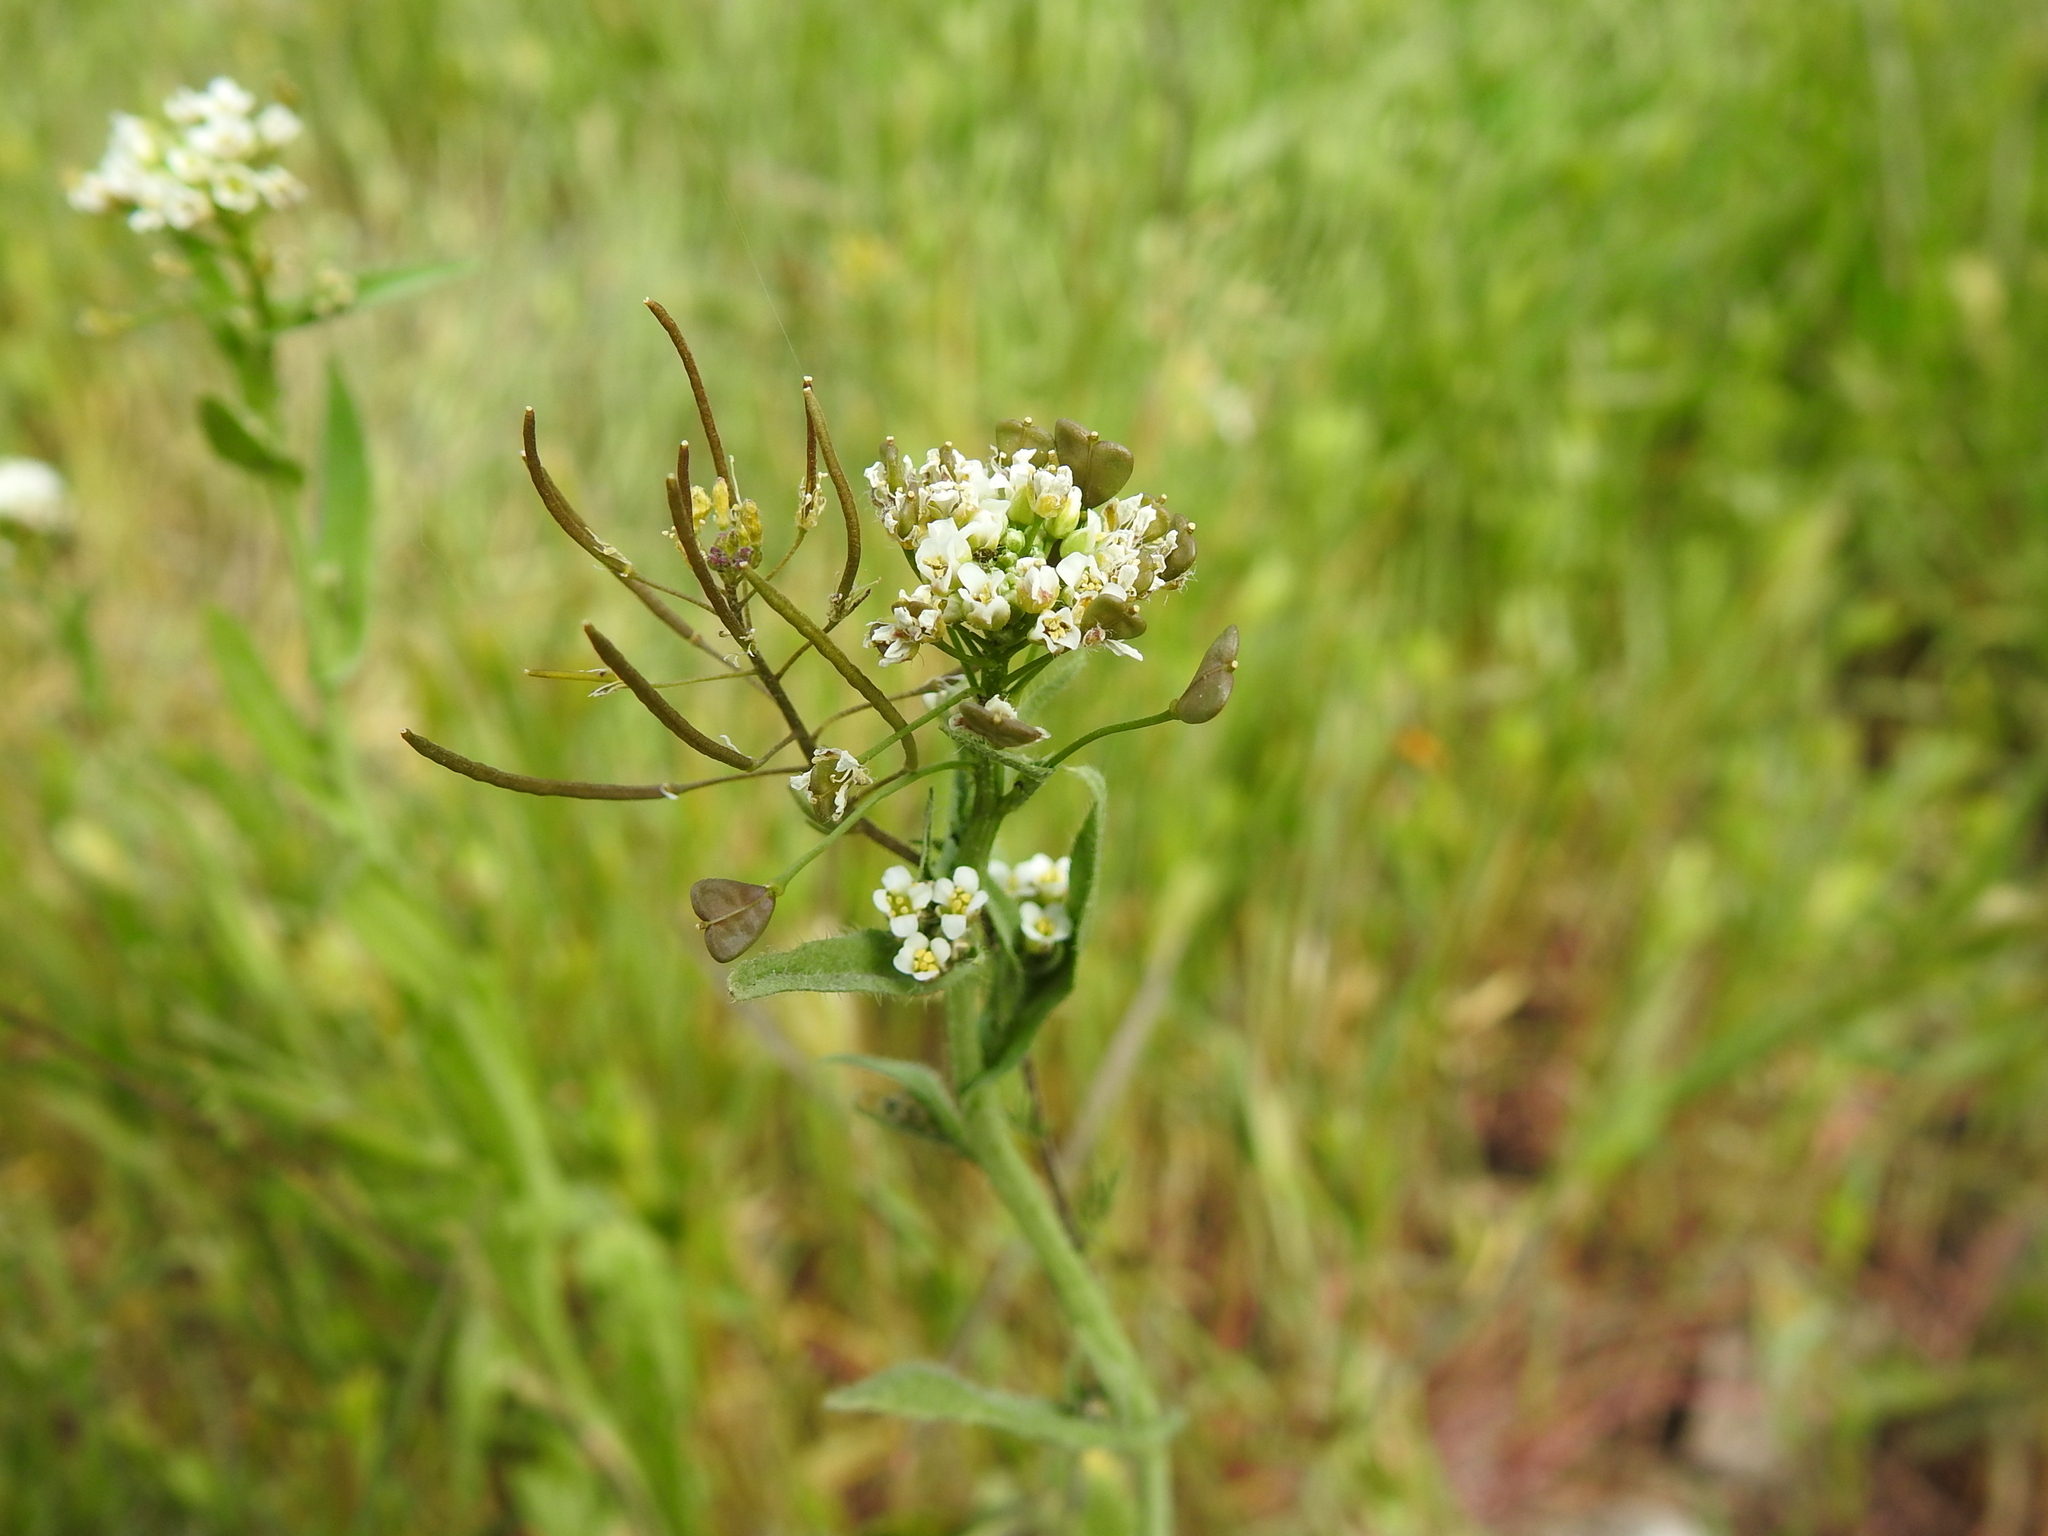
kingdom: Plantae
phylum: Tracheophyta
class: Magnoliopsida
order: Brassicales
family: Brassicaceae
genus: Capsella
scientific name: Capsella bursa-pastoris
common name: Shepherd's purse
